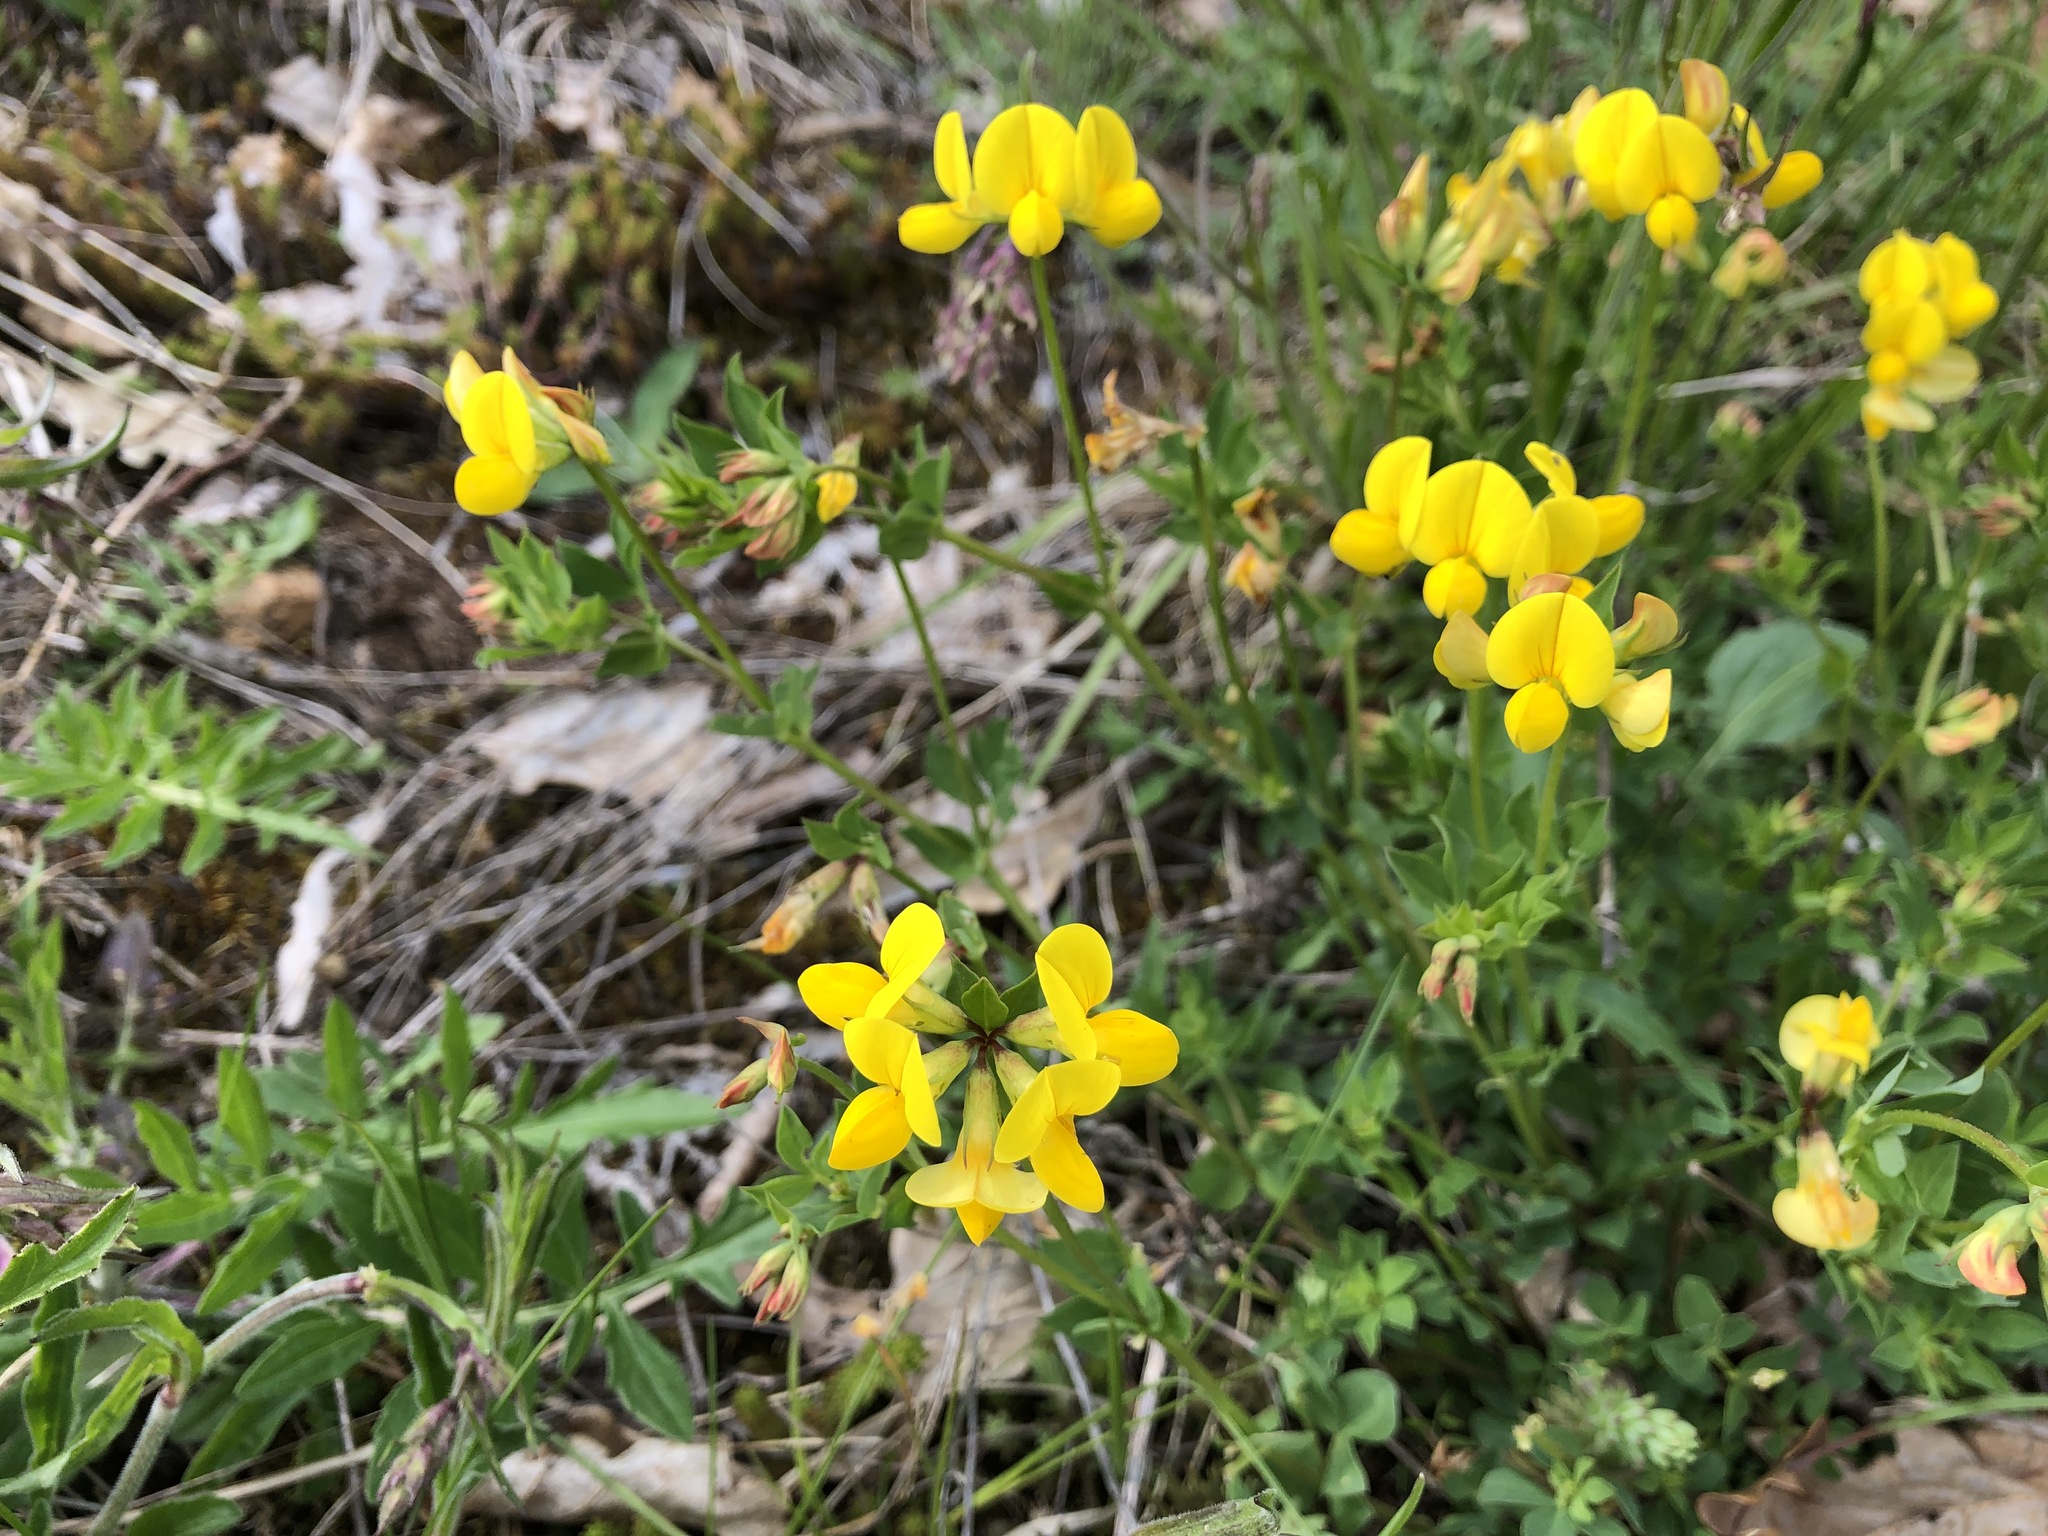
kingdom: Plantae
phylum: Tracheophyta
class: Magnoliopsida
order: Fabales
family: Fabaceae
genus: Lotus
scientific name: Lotus corniculatus
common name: Common bird's-foot-trefoil
